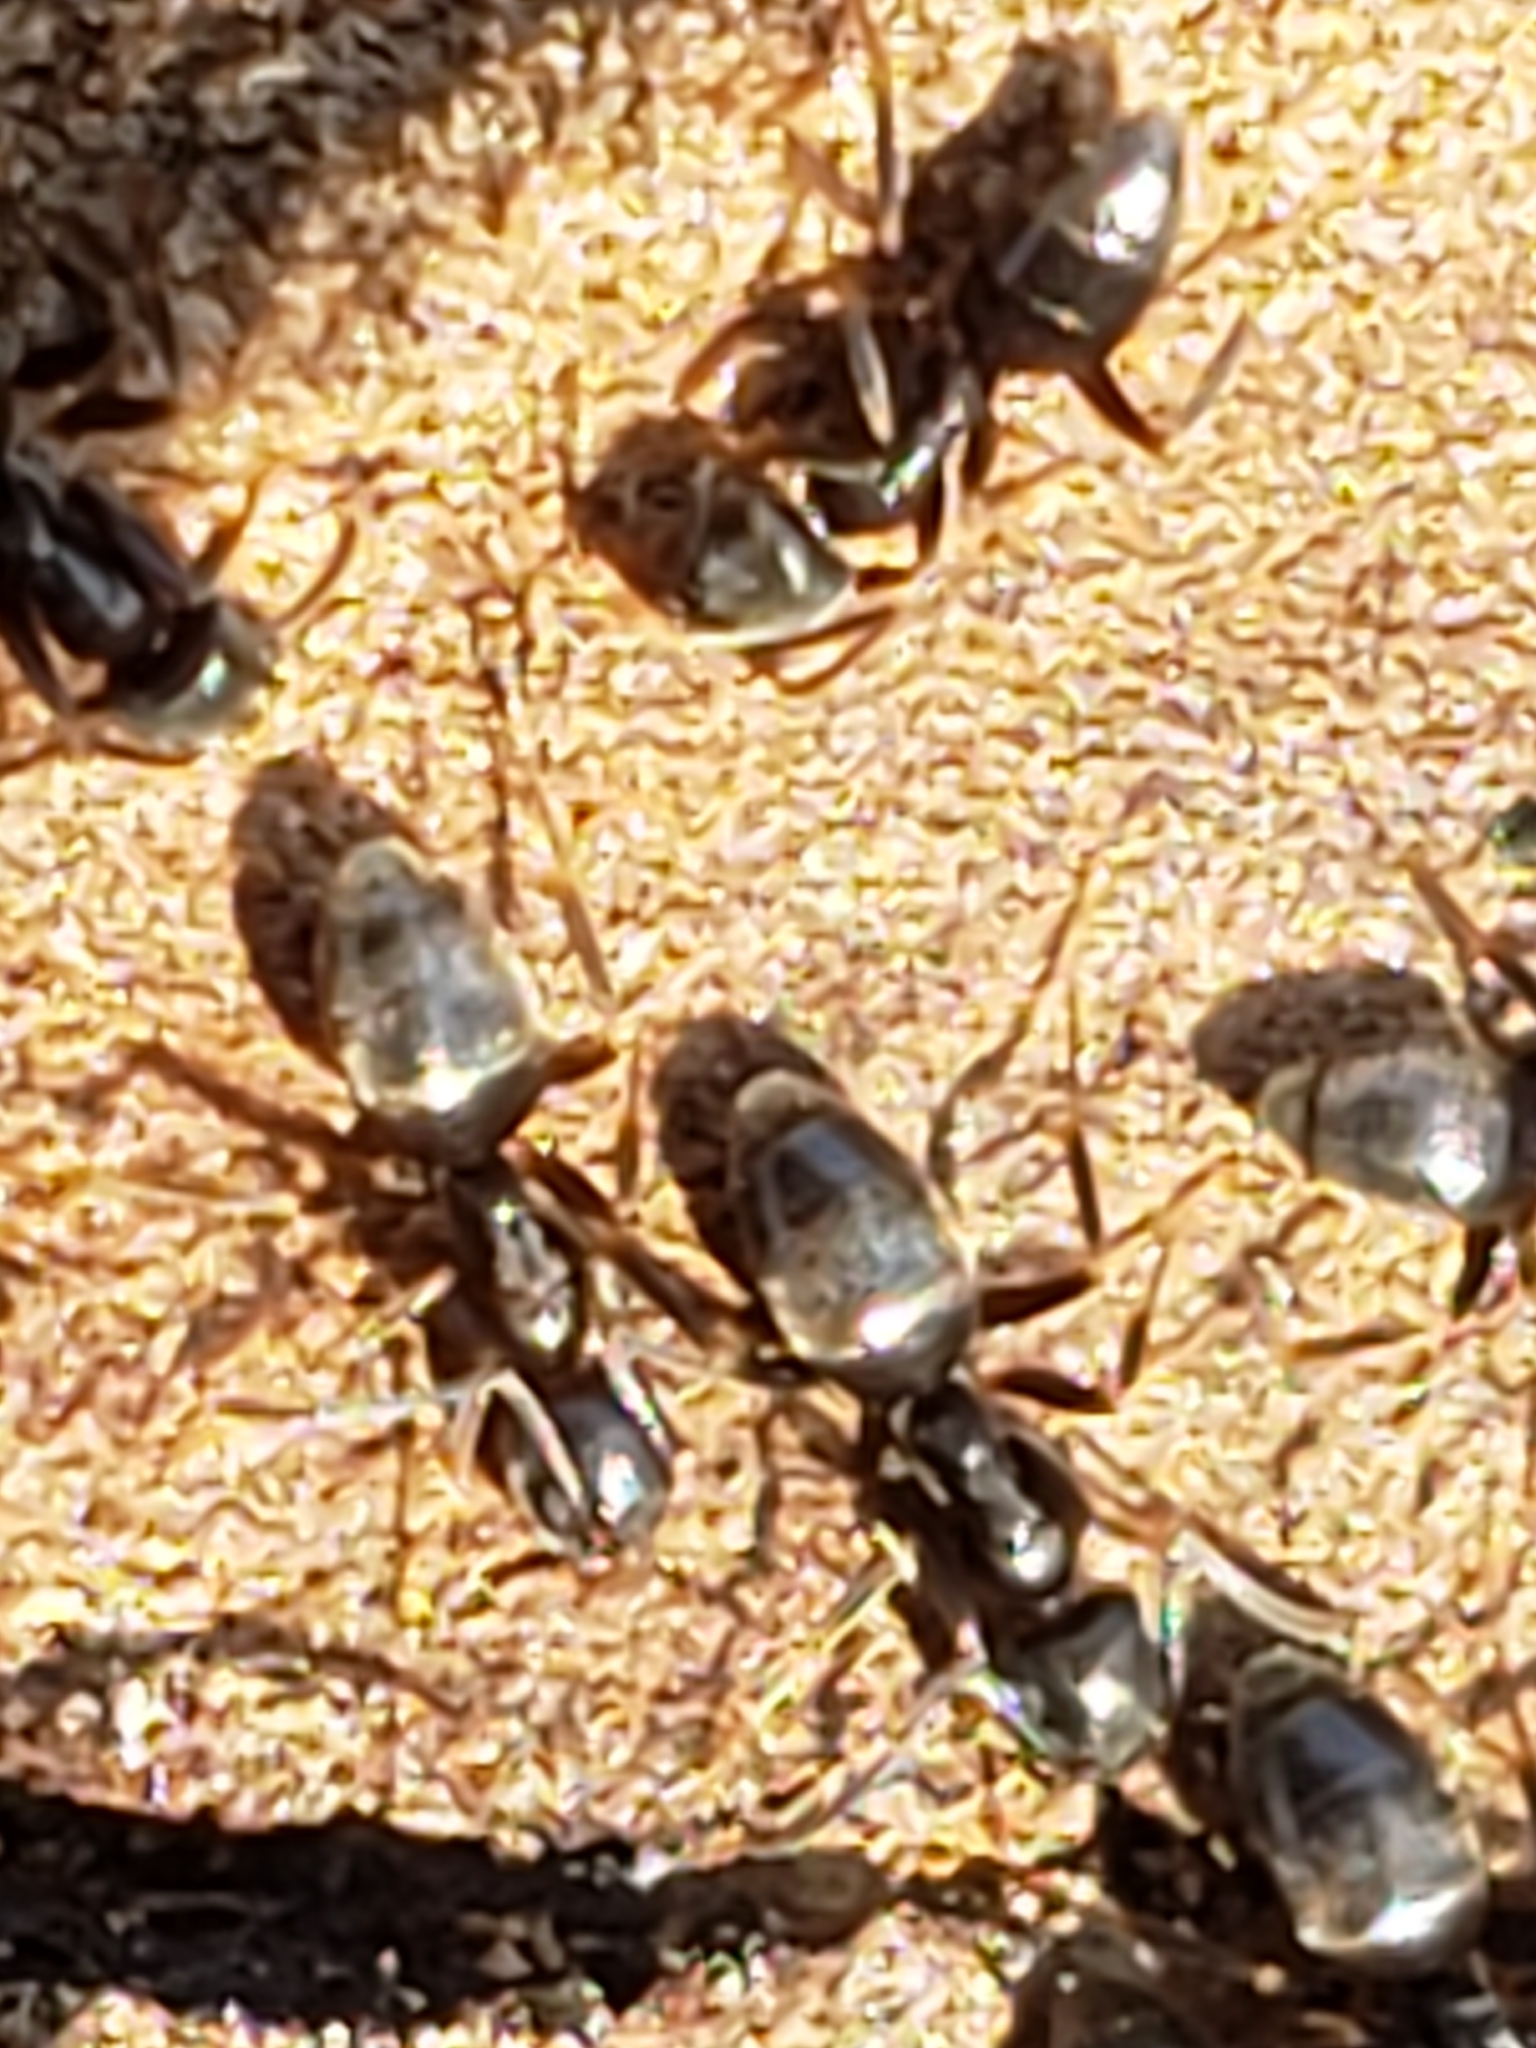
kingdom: Animalia
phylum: Arthropoda
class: Insecta
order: Hymenoptera
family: Formicidae
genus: Tapinoma
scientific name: Tapinoma sessile
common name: Odorous house ant
